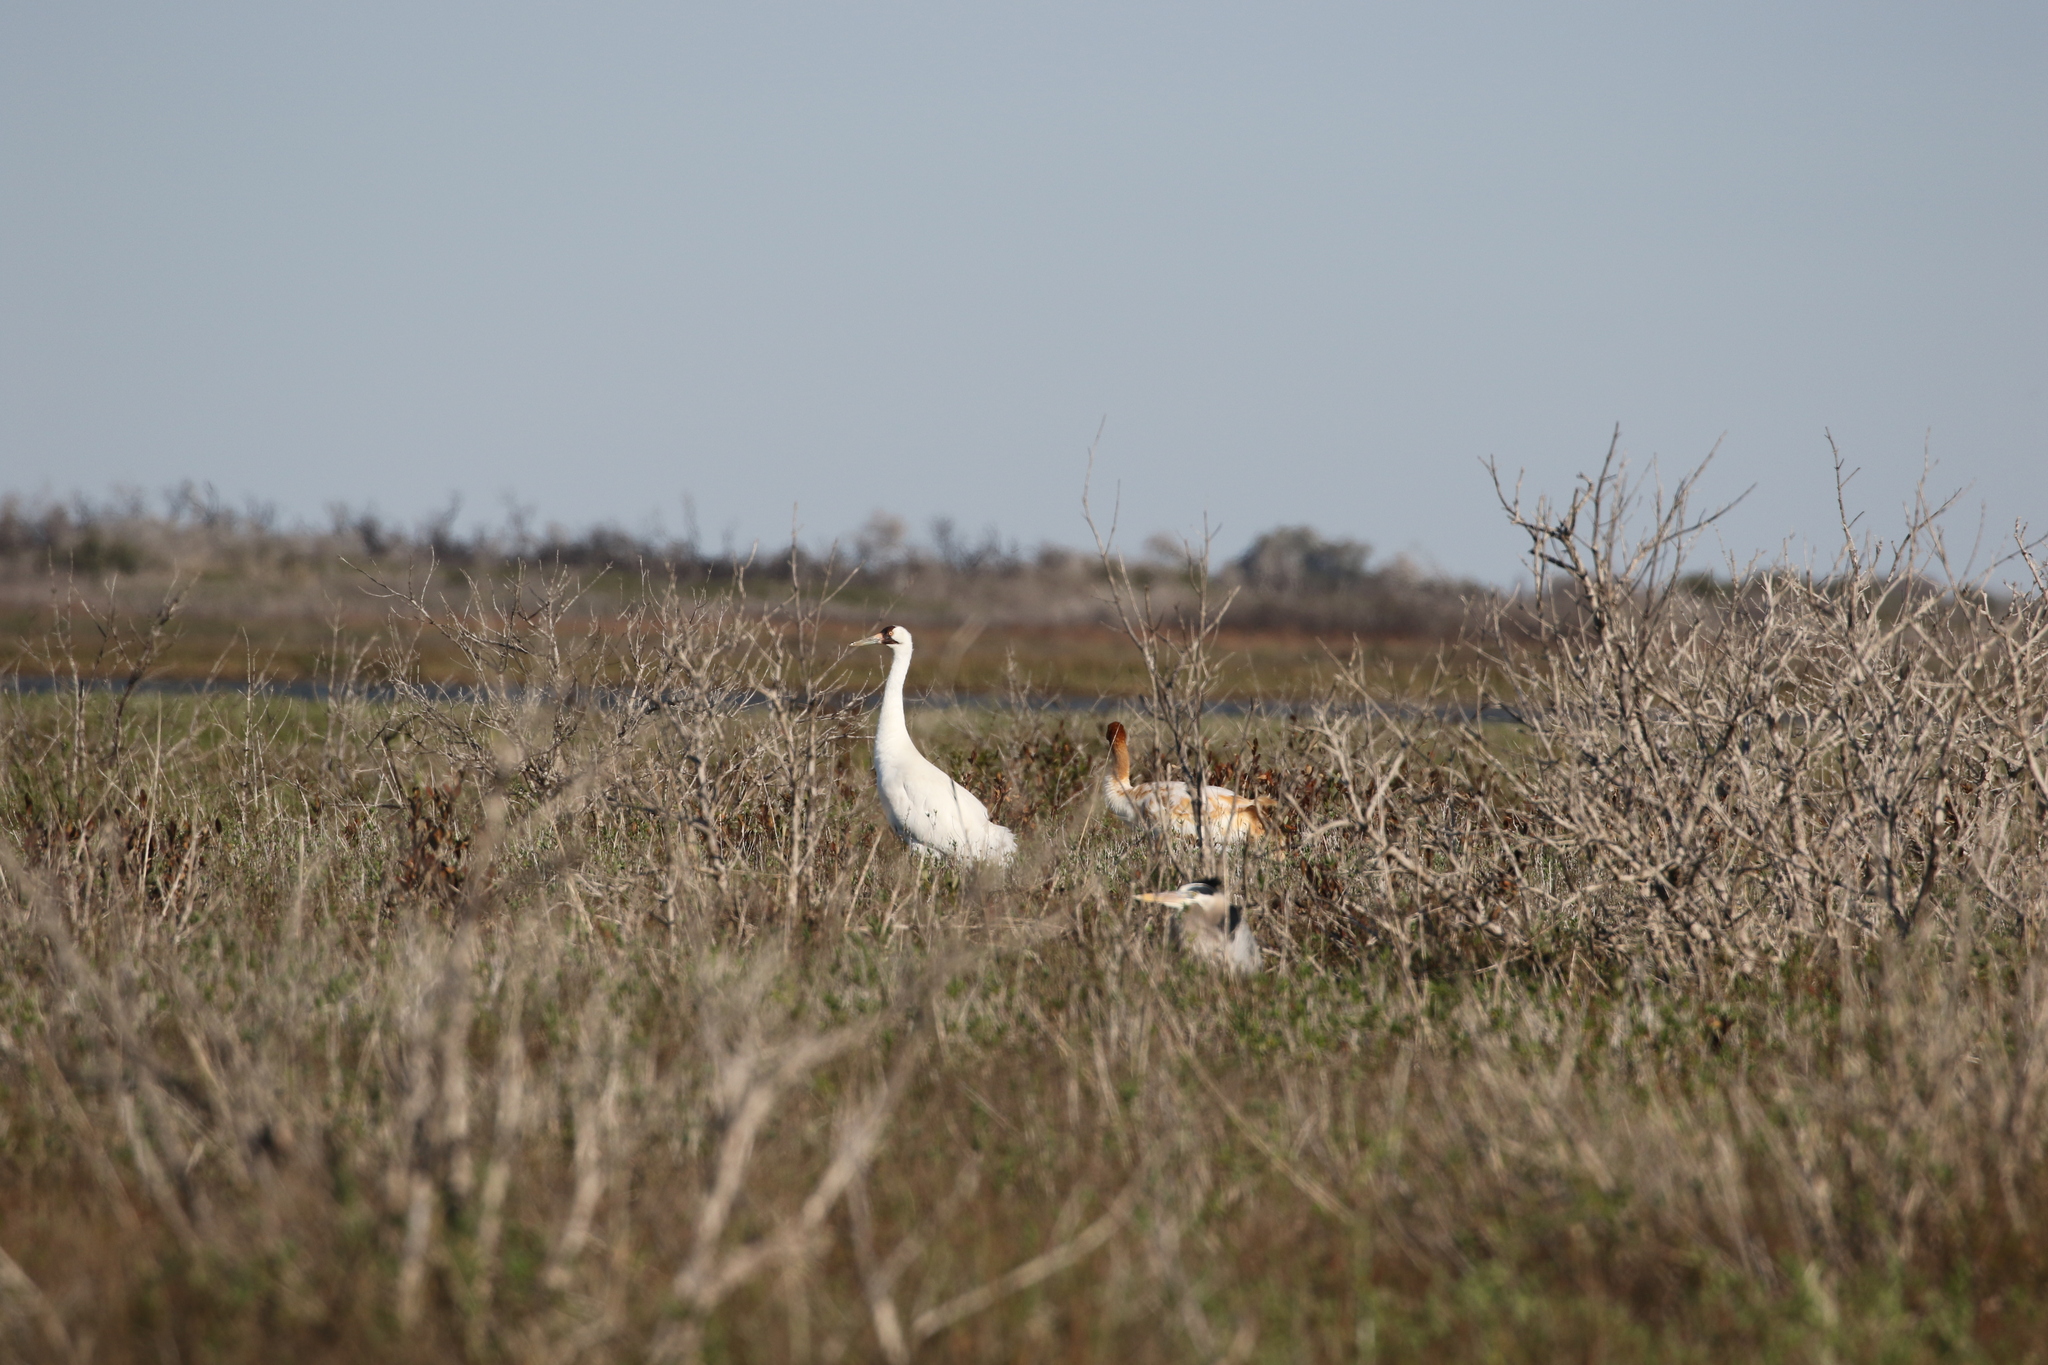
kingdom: Animalia
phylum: Chordata
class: Aves
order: Pelecaniformes
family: Ardeidae
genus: Ardea
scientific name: Ardea herodias
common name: Great blue heron
